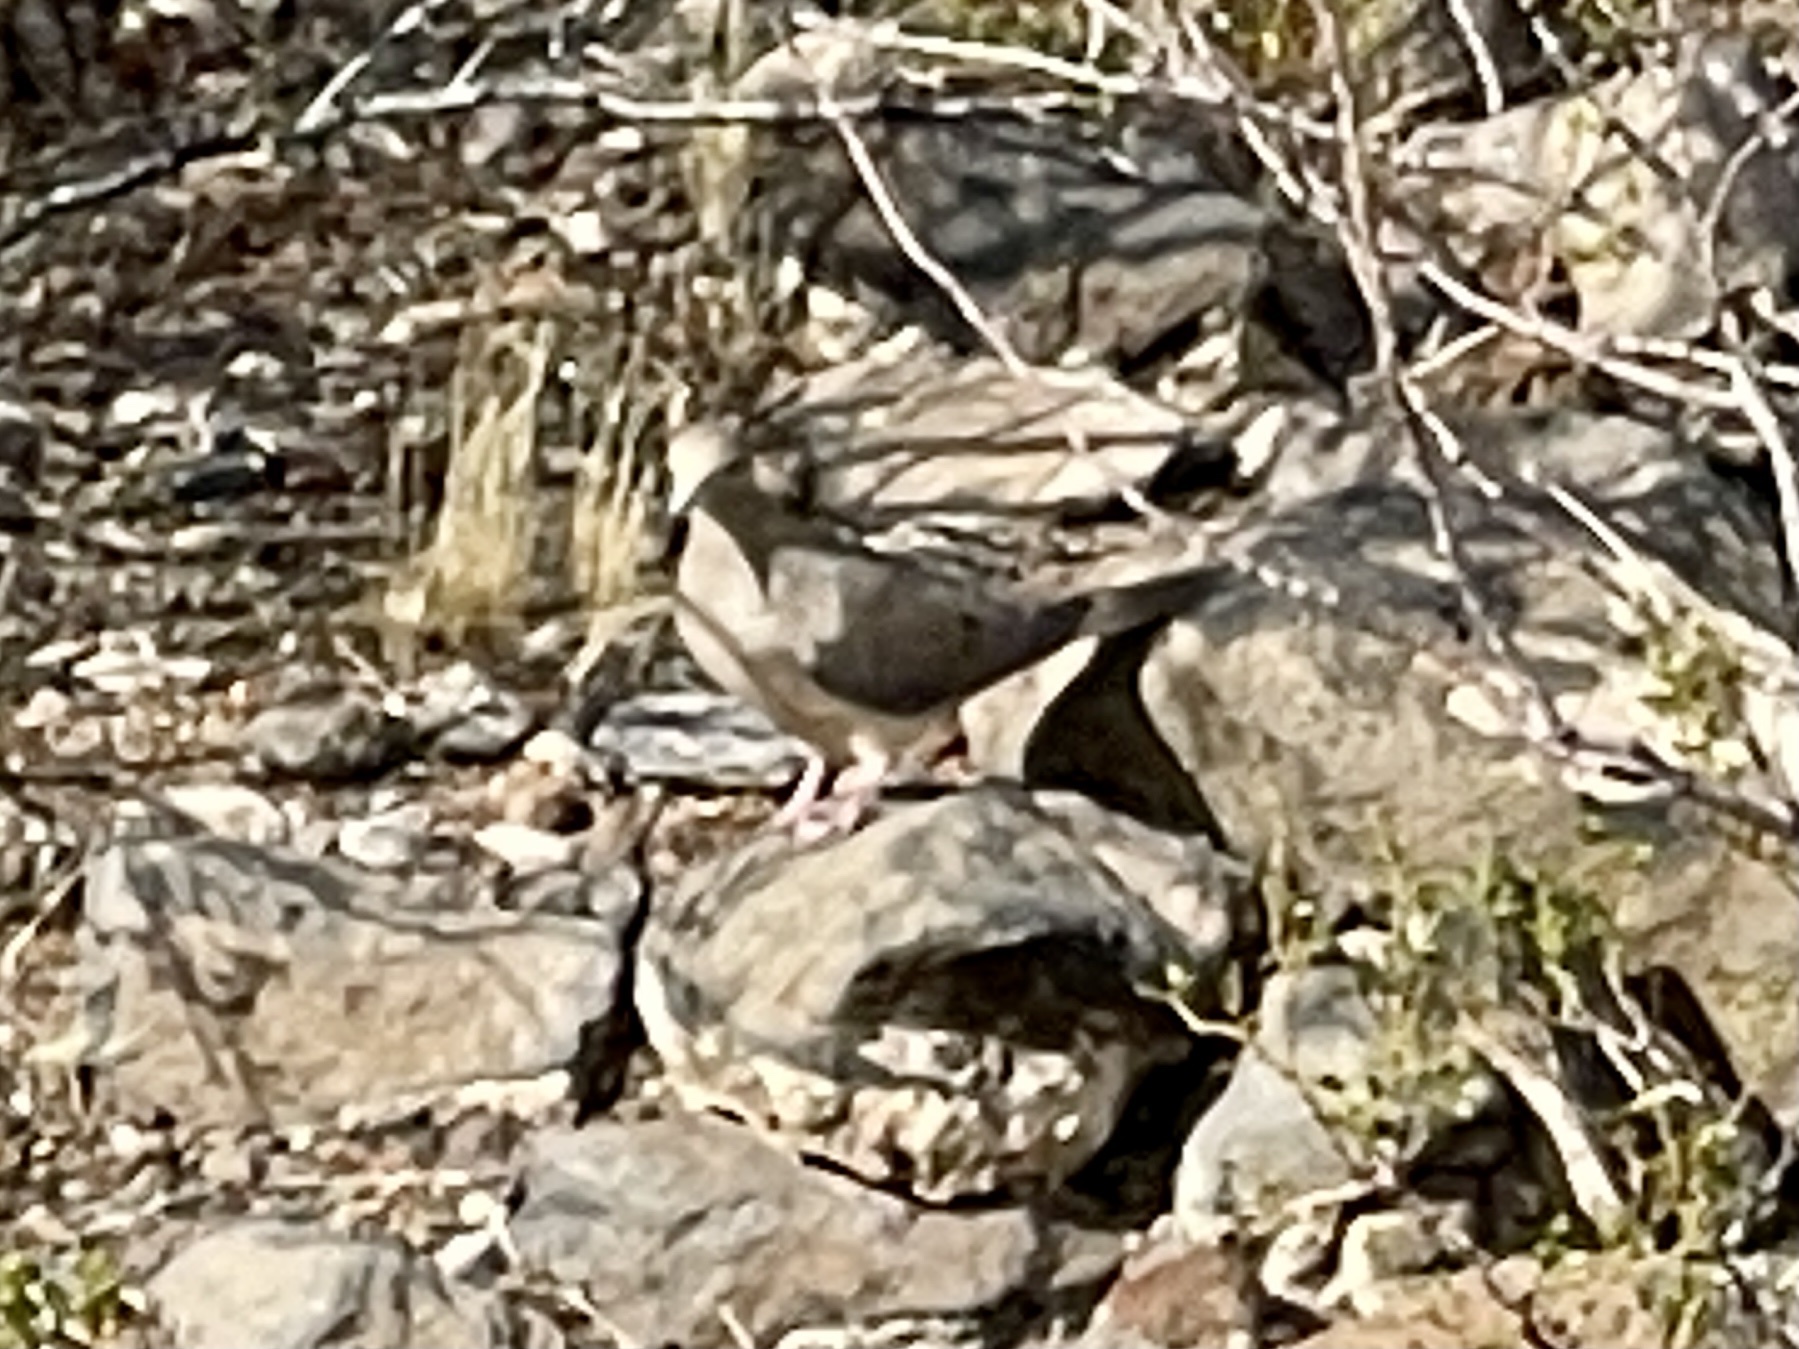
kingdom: Animalia
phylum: Chordata
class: Aves
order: Columbiformes
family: Columbidae
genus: Zenaida
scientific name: Zenaida macroura
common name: Mourning dove
